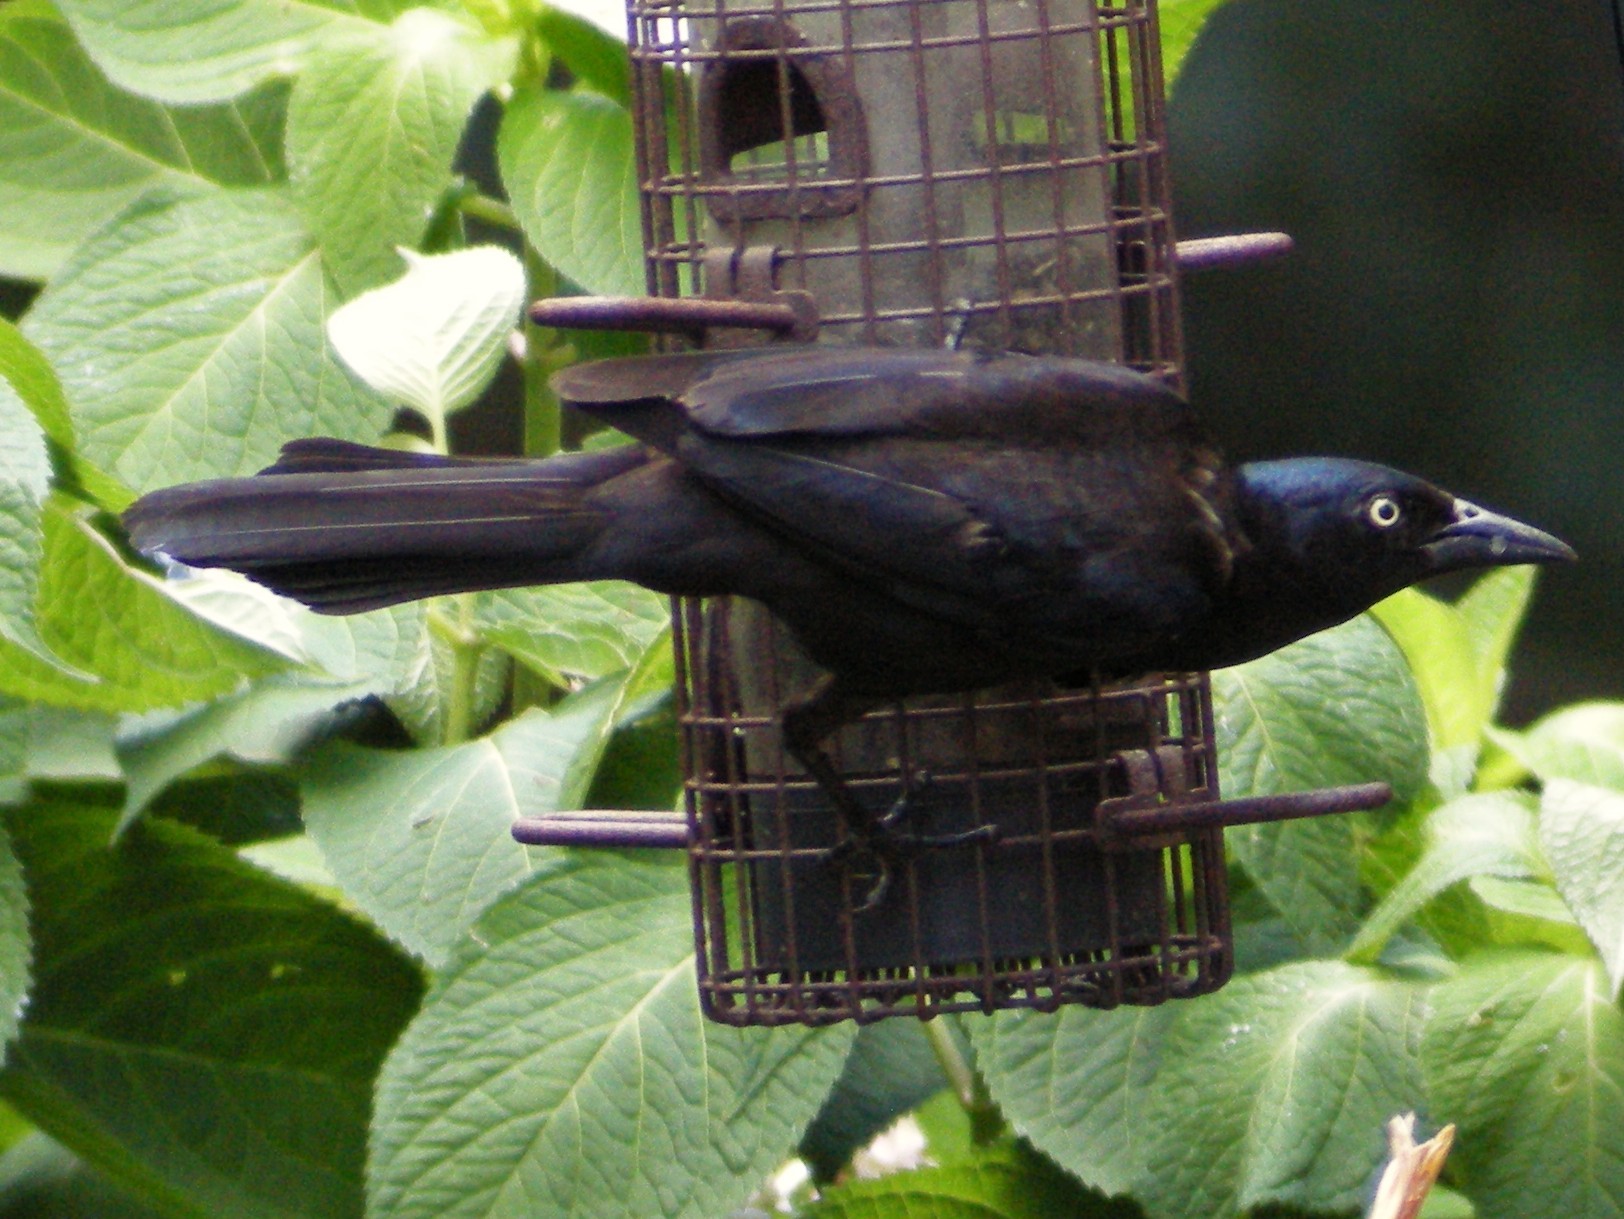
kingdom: Animalia
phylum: Chordata
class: Aves
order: Passeriformes
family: Icteridae
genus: Quiscalus
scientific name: Quiscalus quiscula
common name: Common grackle
